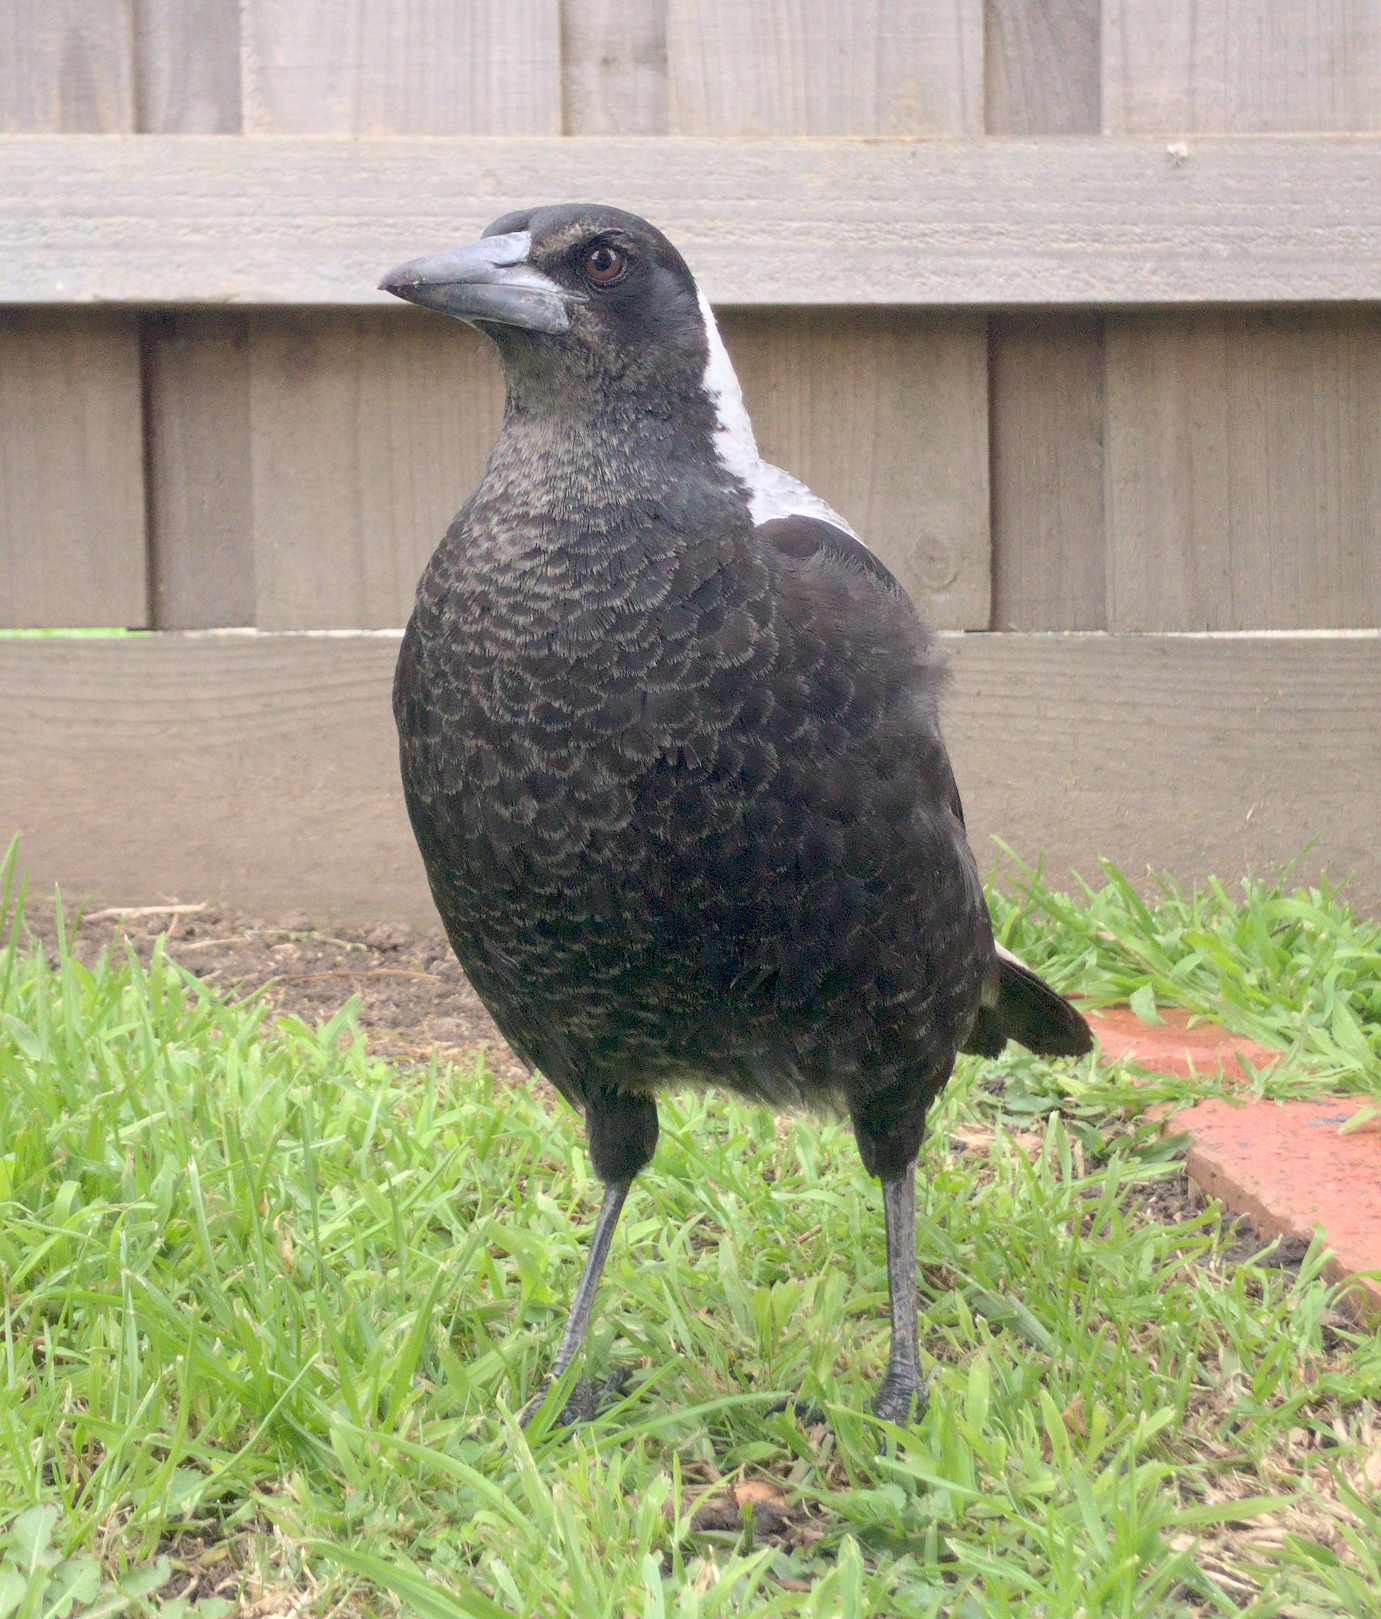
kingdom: Animalia
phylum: Chordata
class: Aves
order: Passeriformes
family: Cracticidae
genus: Gymnorhina
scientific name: Gymnorhina tibicen
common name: Australian magpie
